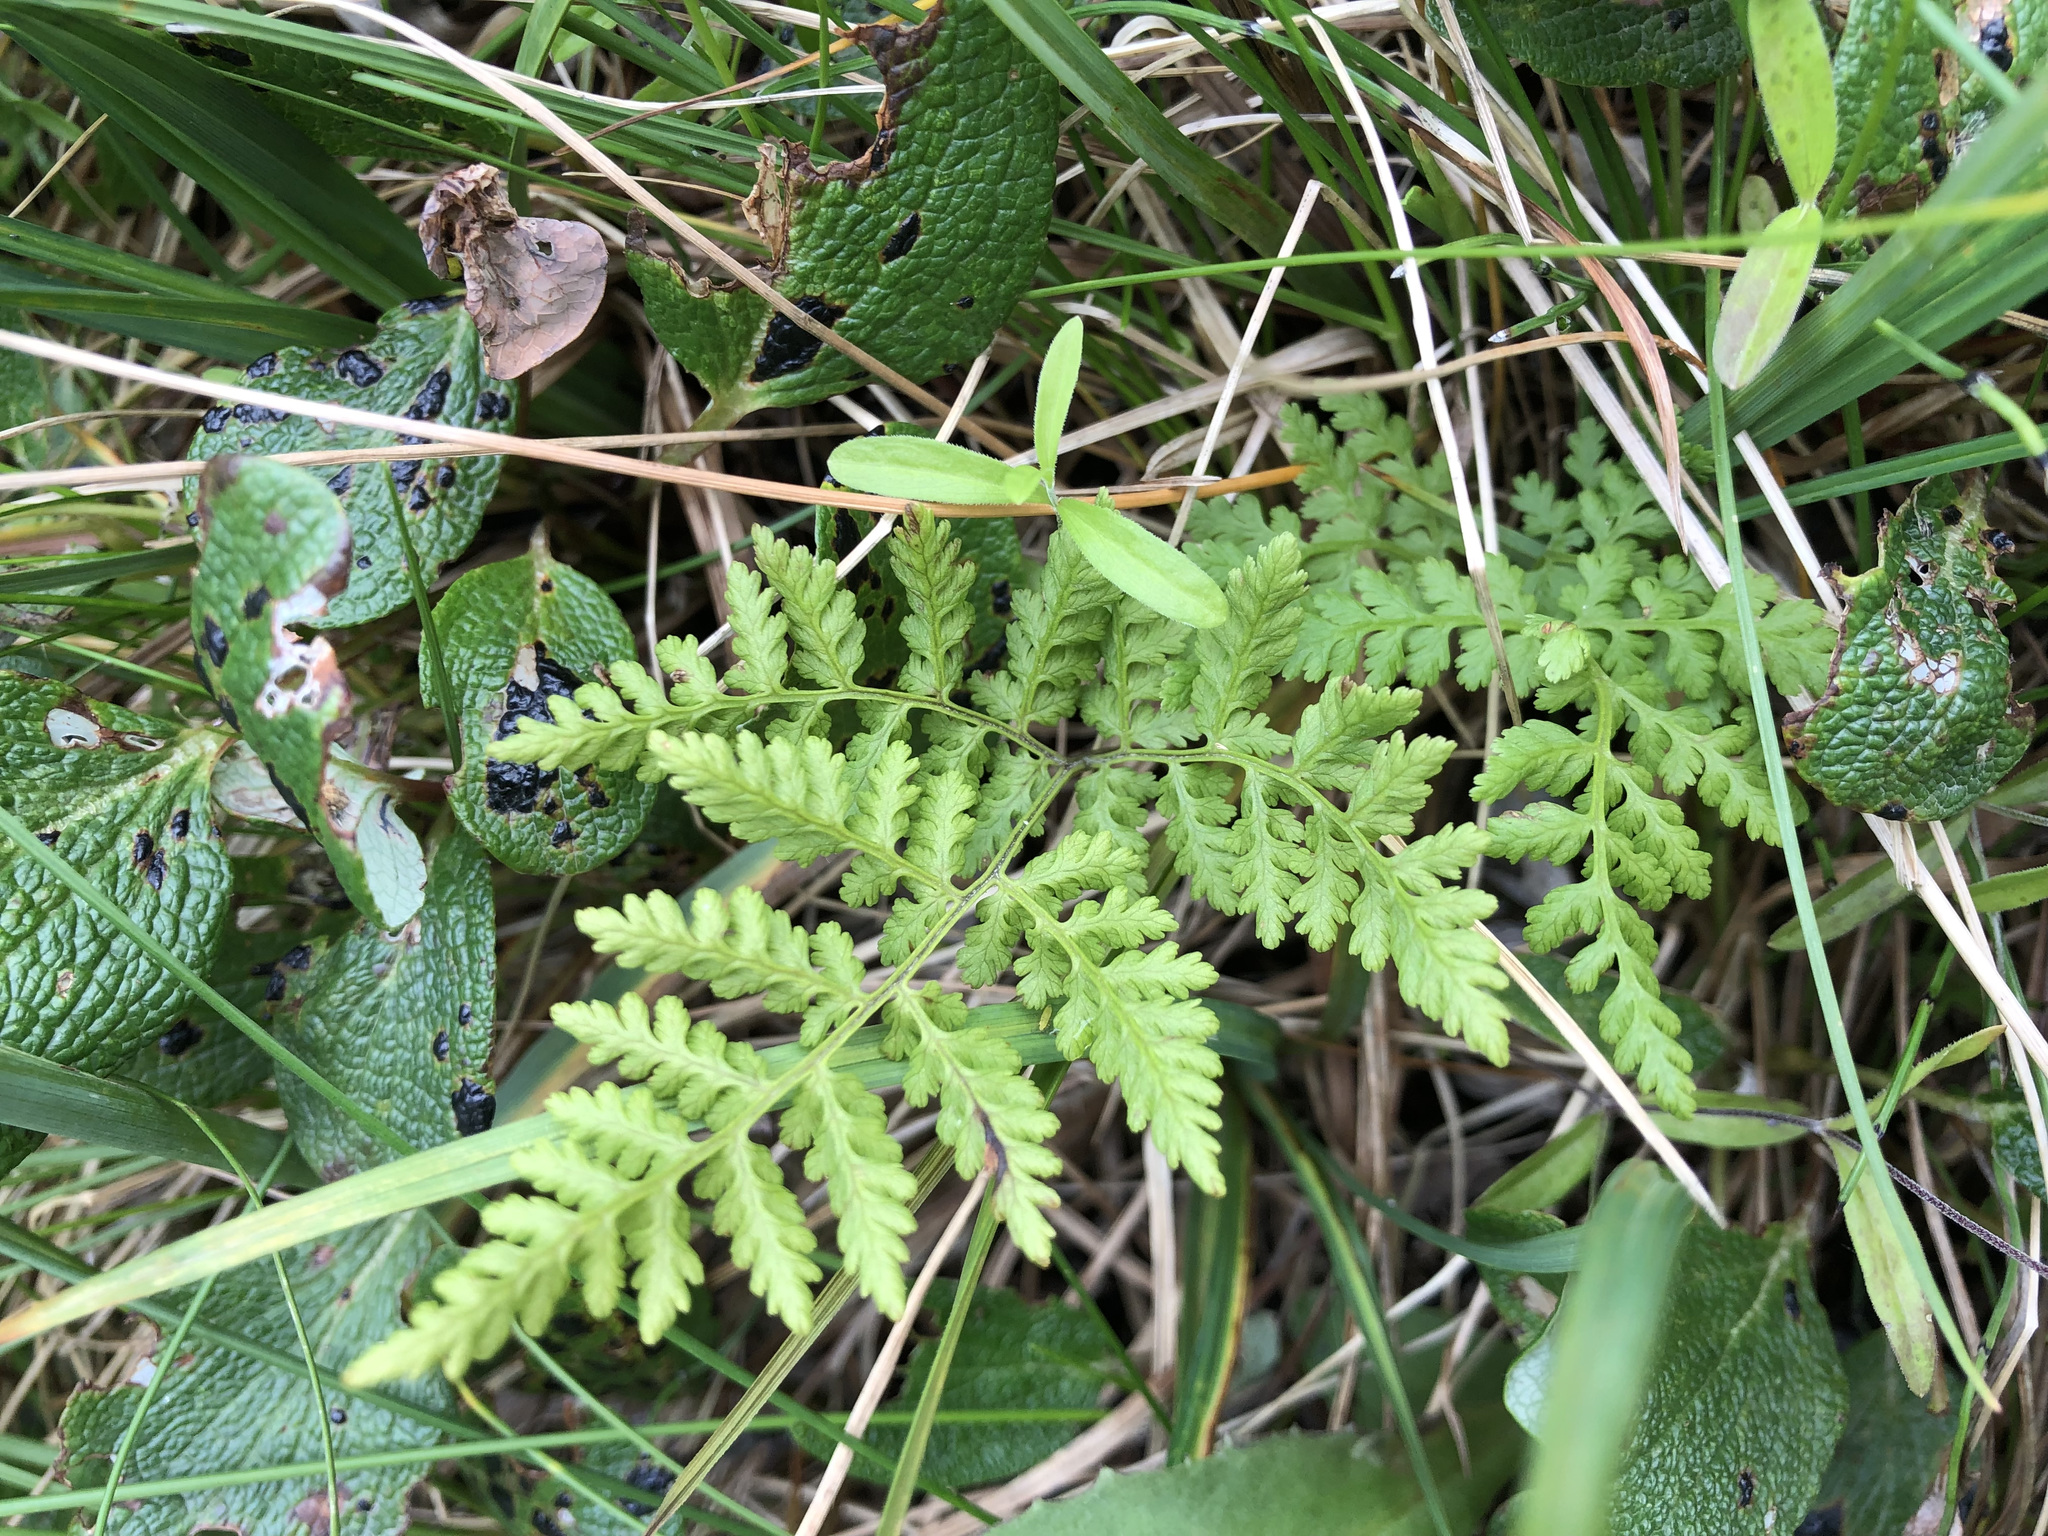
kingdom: Plantae
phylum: Tracheophyta
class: Polypodiopsida
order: Polypodiales
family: Cystopteridaceae
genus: Cystopteris
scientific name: Cystopteris montana
